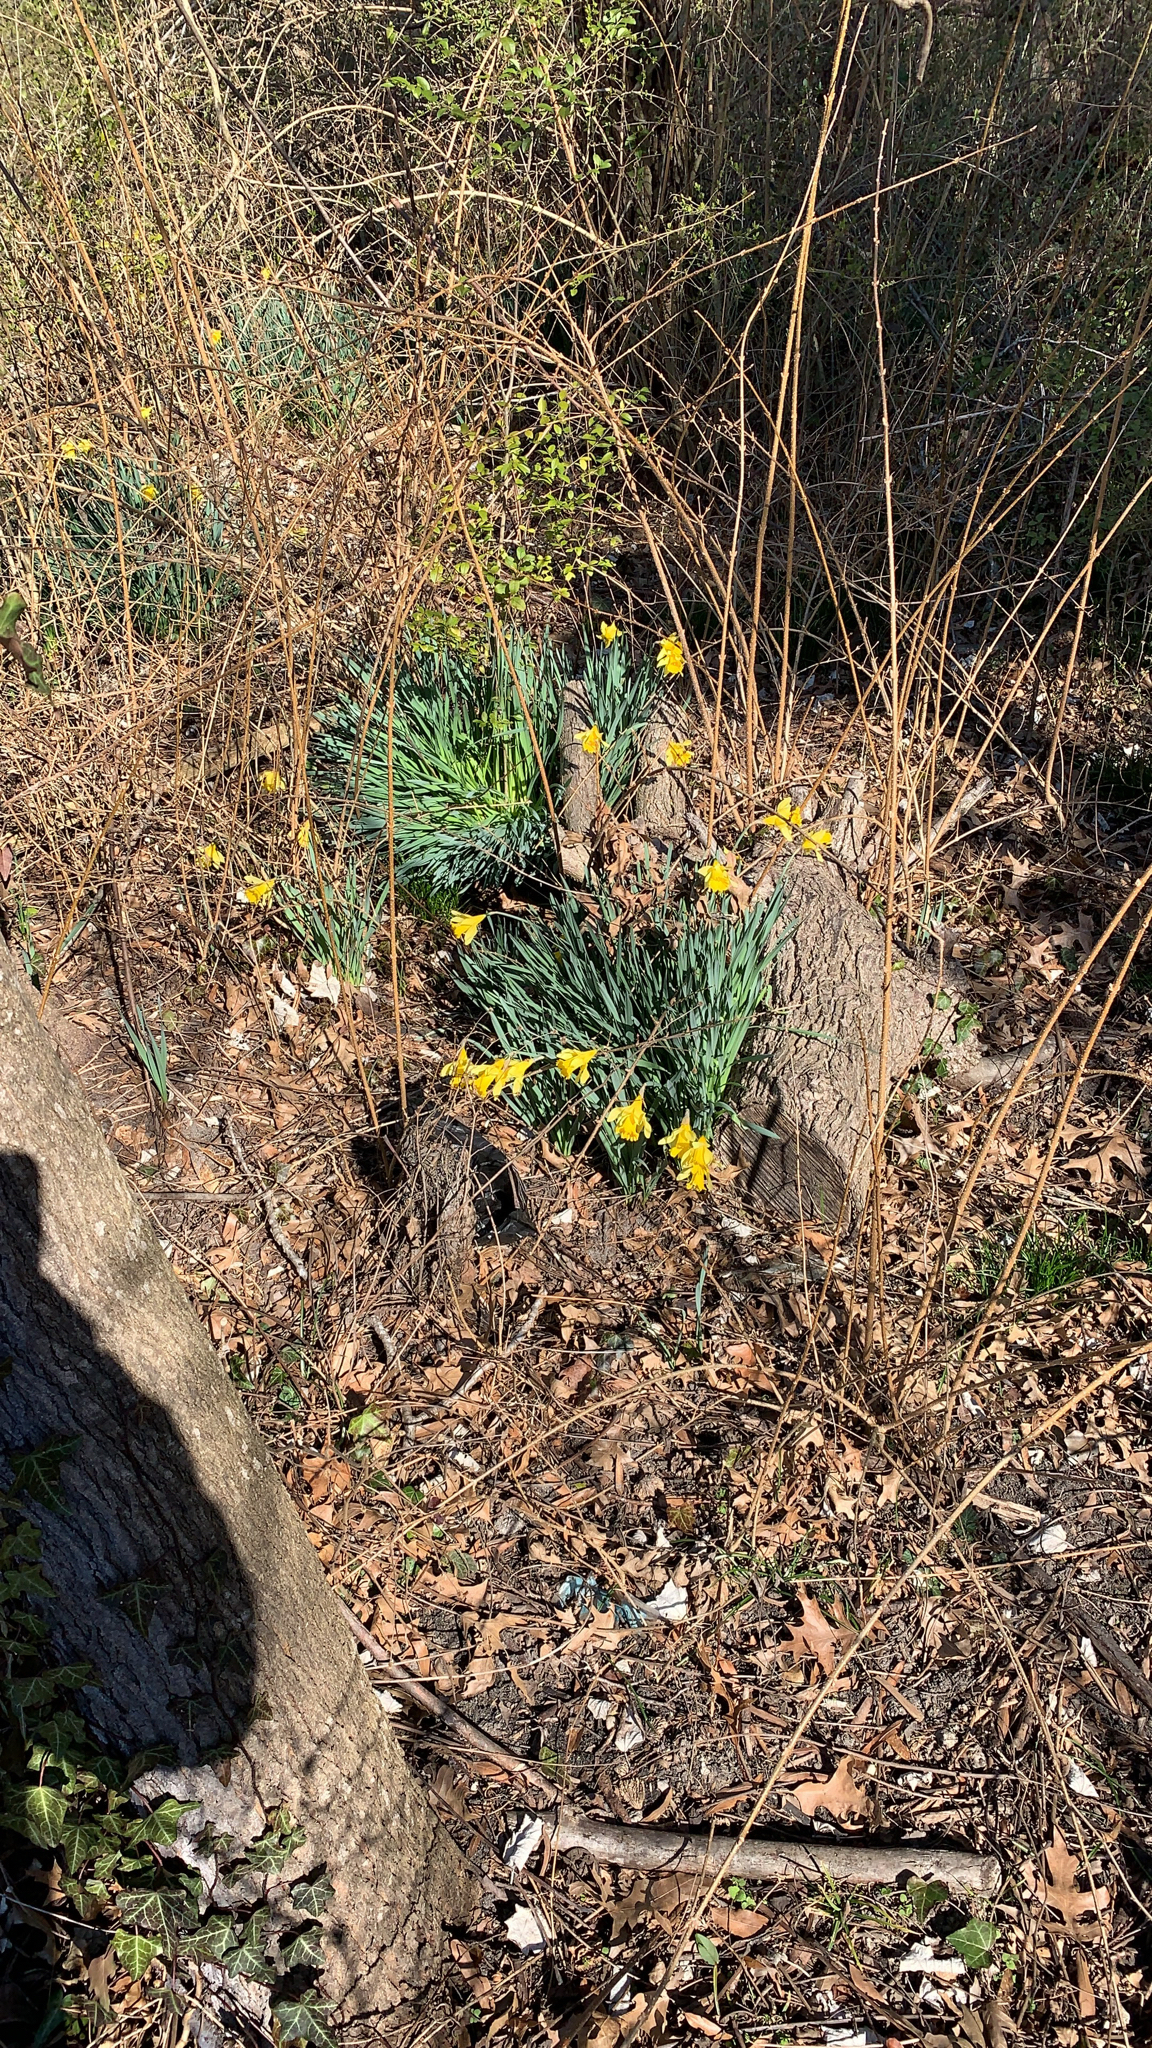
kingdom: Plantae
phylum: Tracheophyta
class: Liliopsida
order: Asparagales
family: Amaryllidaceae
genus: Narcissus
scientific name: Narcissus pseudonarcissus
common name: Daffodil
